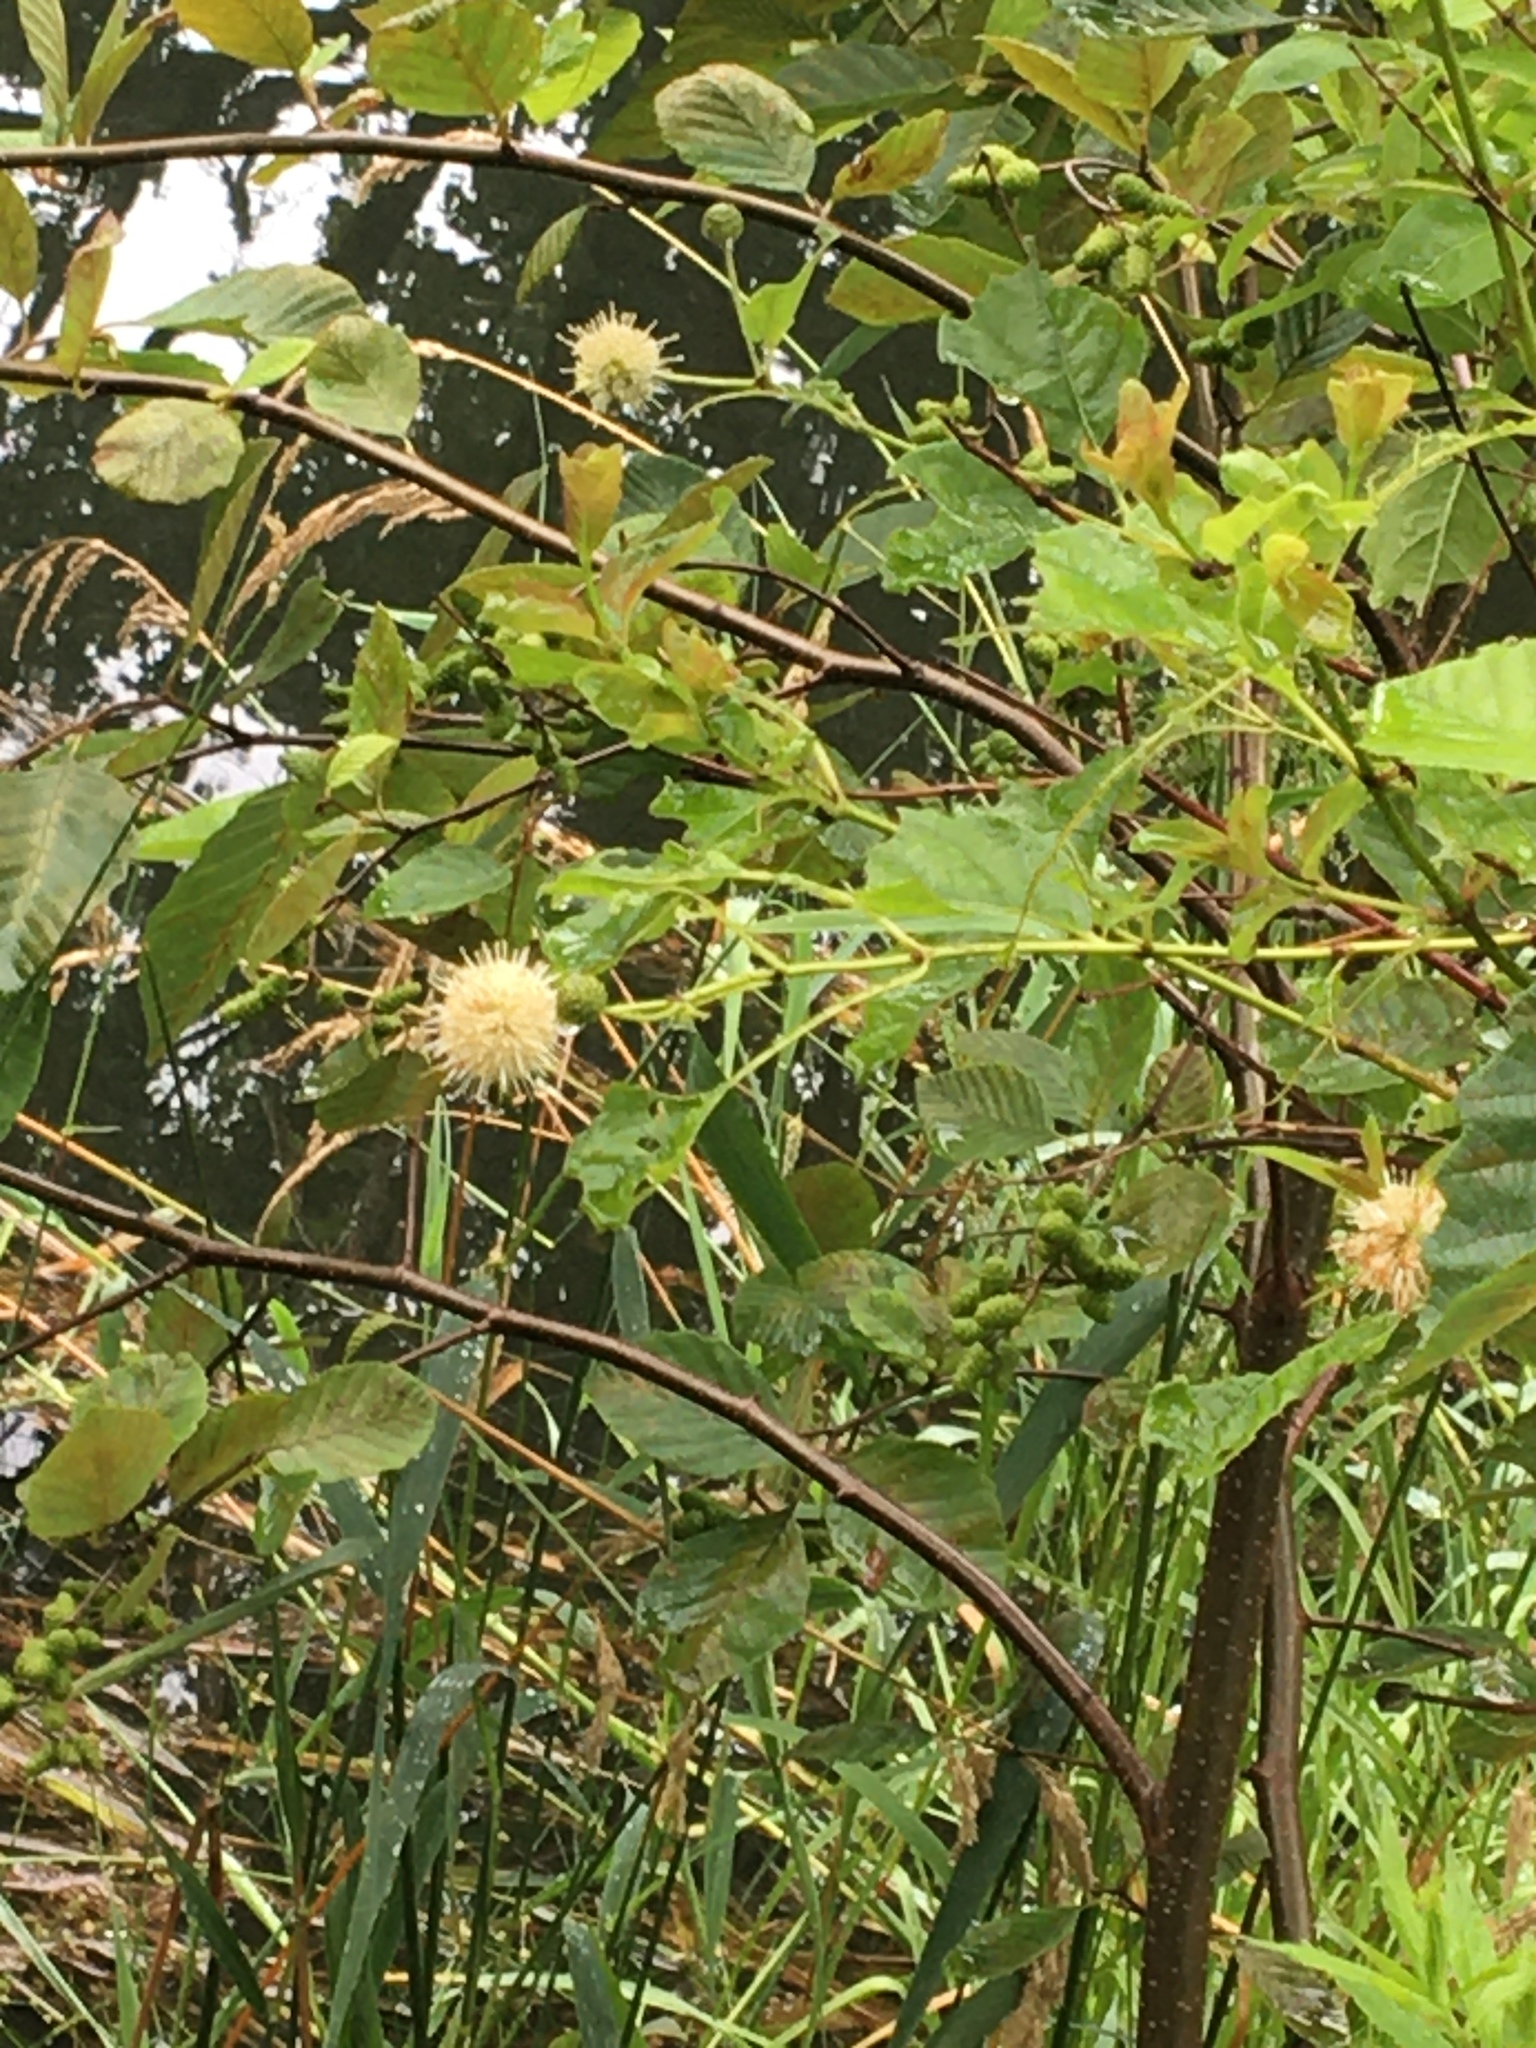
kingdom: Plantae
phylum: Tracheophyta
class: Magnoliopsida
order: Gentianales
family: Rubiaceae
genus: Cephalanthus
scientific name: Cephalanthus occidentalis
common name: Button-willow
